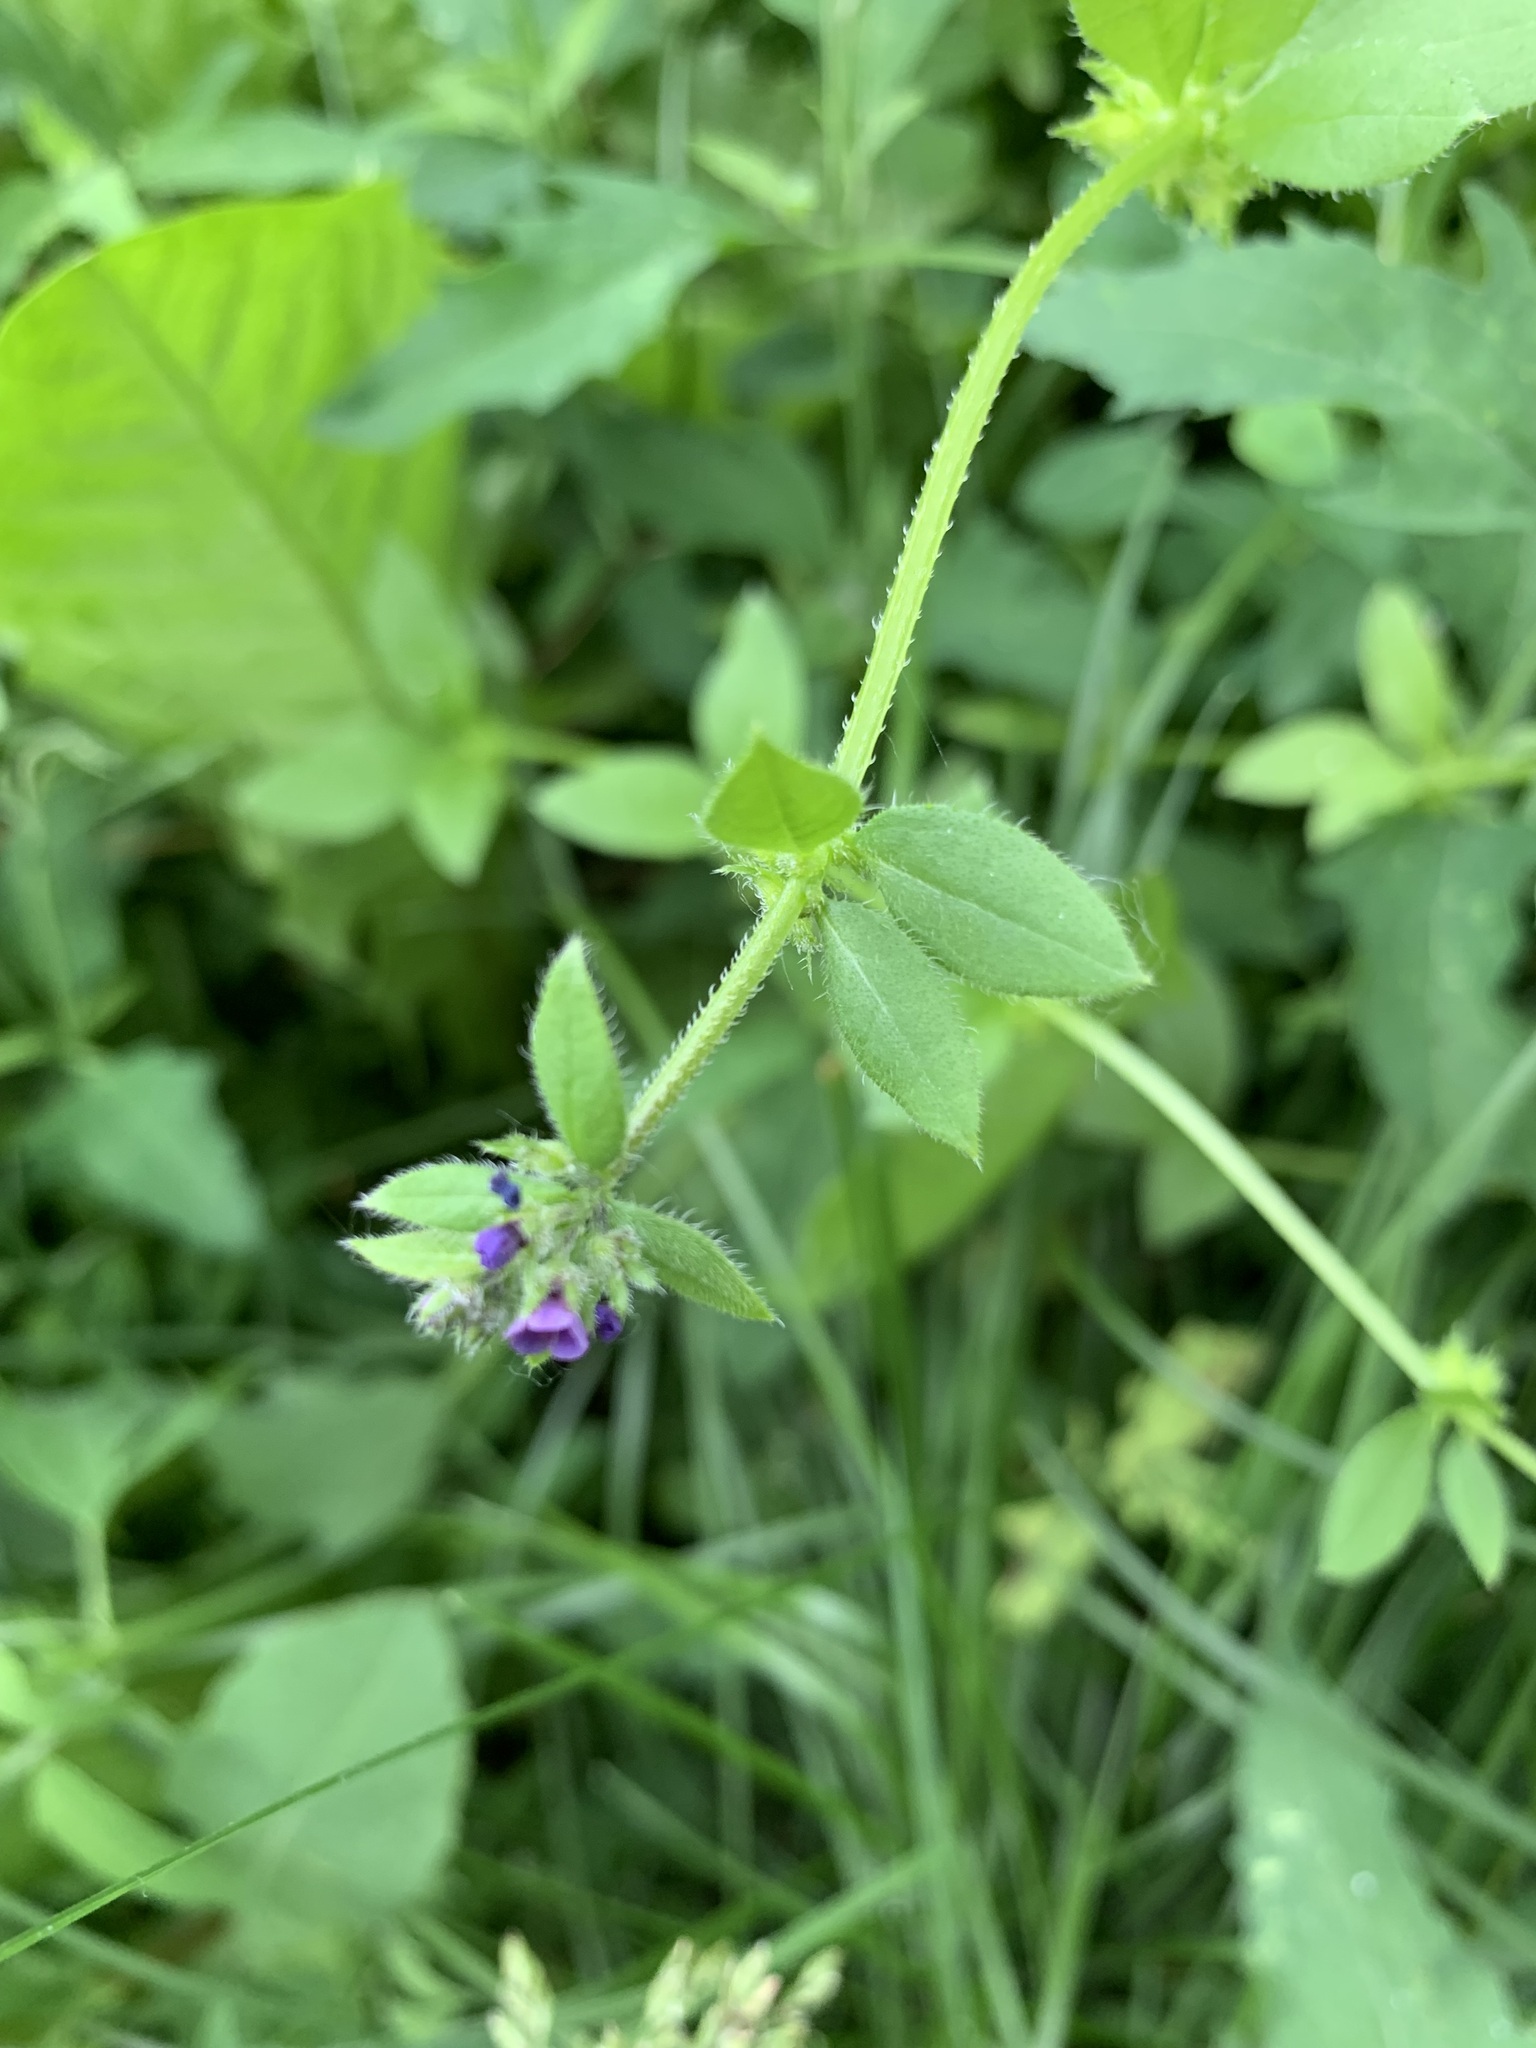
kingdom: Plantae
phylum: Tracheophyta
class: Magnoliopsida
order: Boraginales
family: Boraginaceae
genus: Asperugo
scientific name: Asperugo procumbens
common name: Madwort
